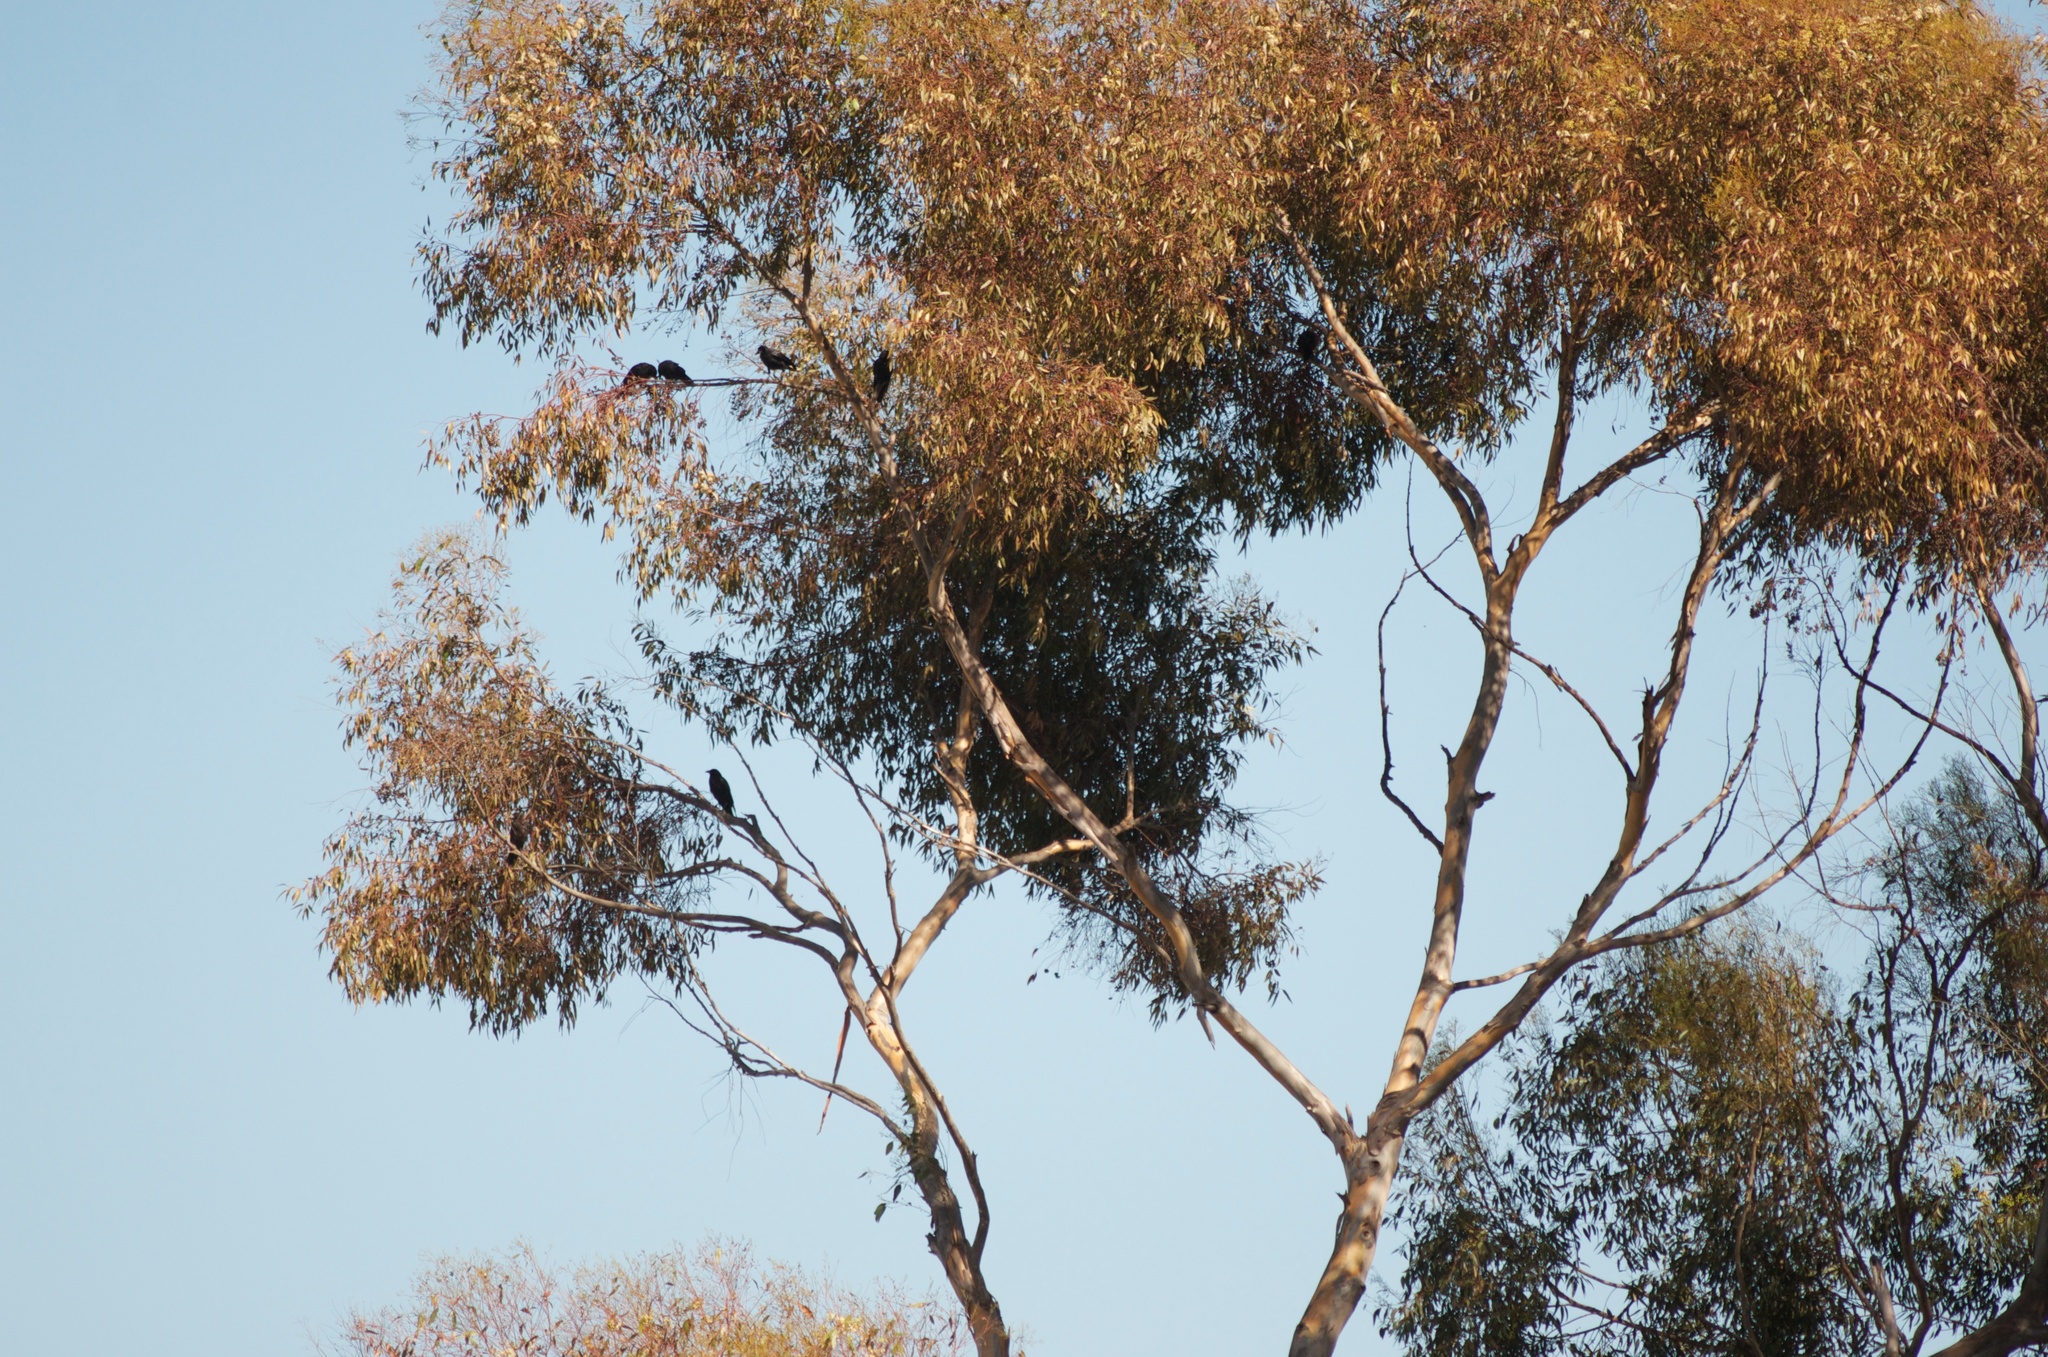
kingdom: Animalia
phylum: Chordata
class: Aves
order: Passeriformes
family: Corvidae
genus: Corvus
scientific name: Corvus brachyrhynchos
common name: American crow
